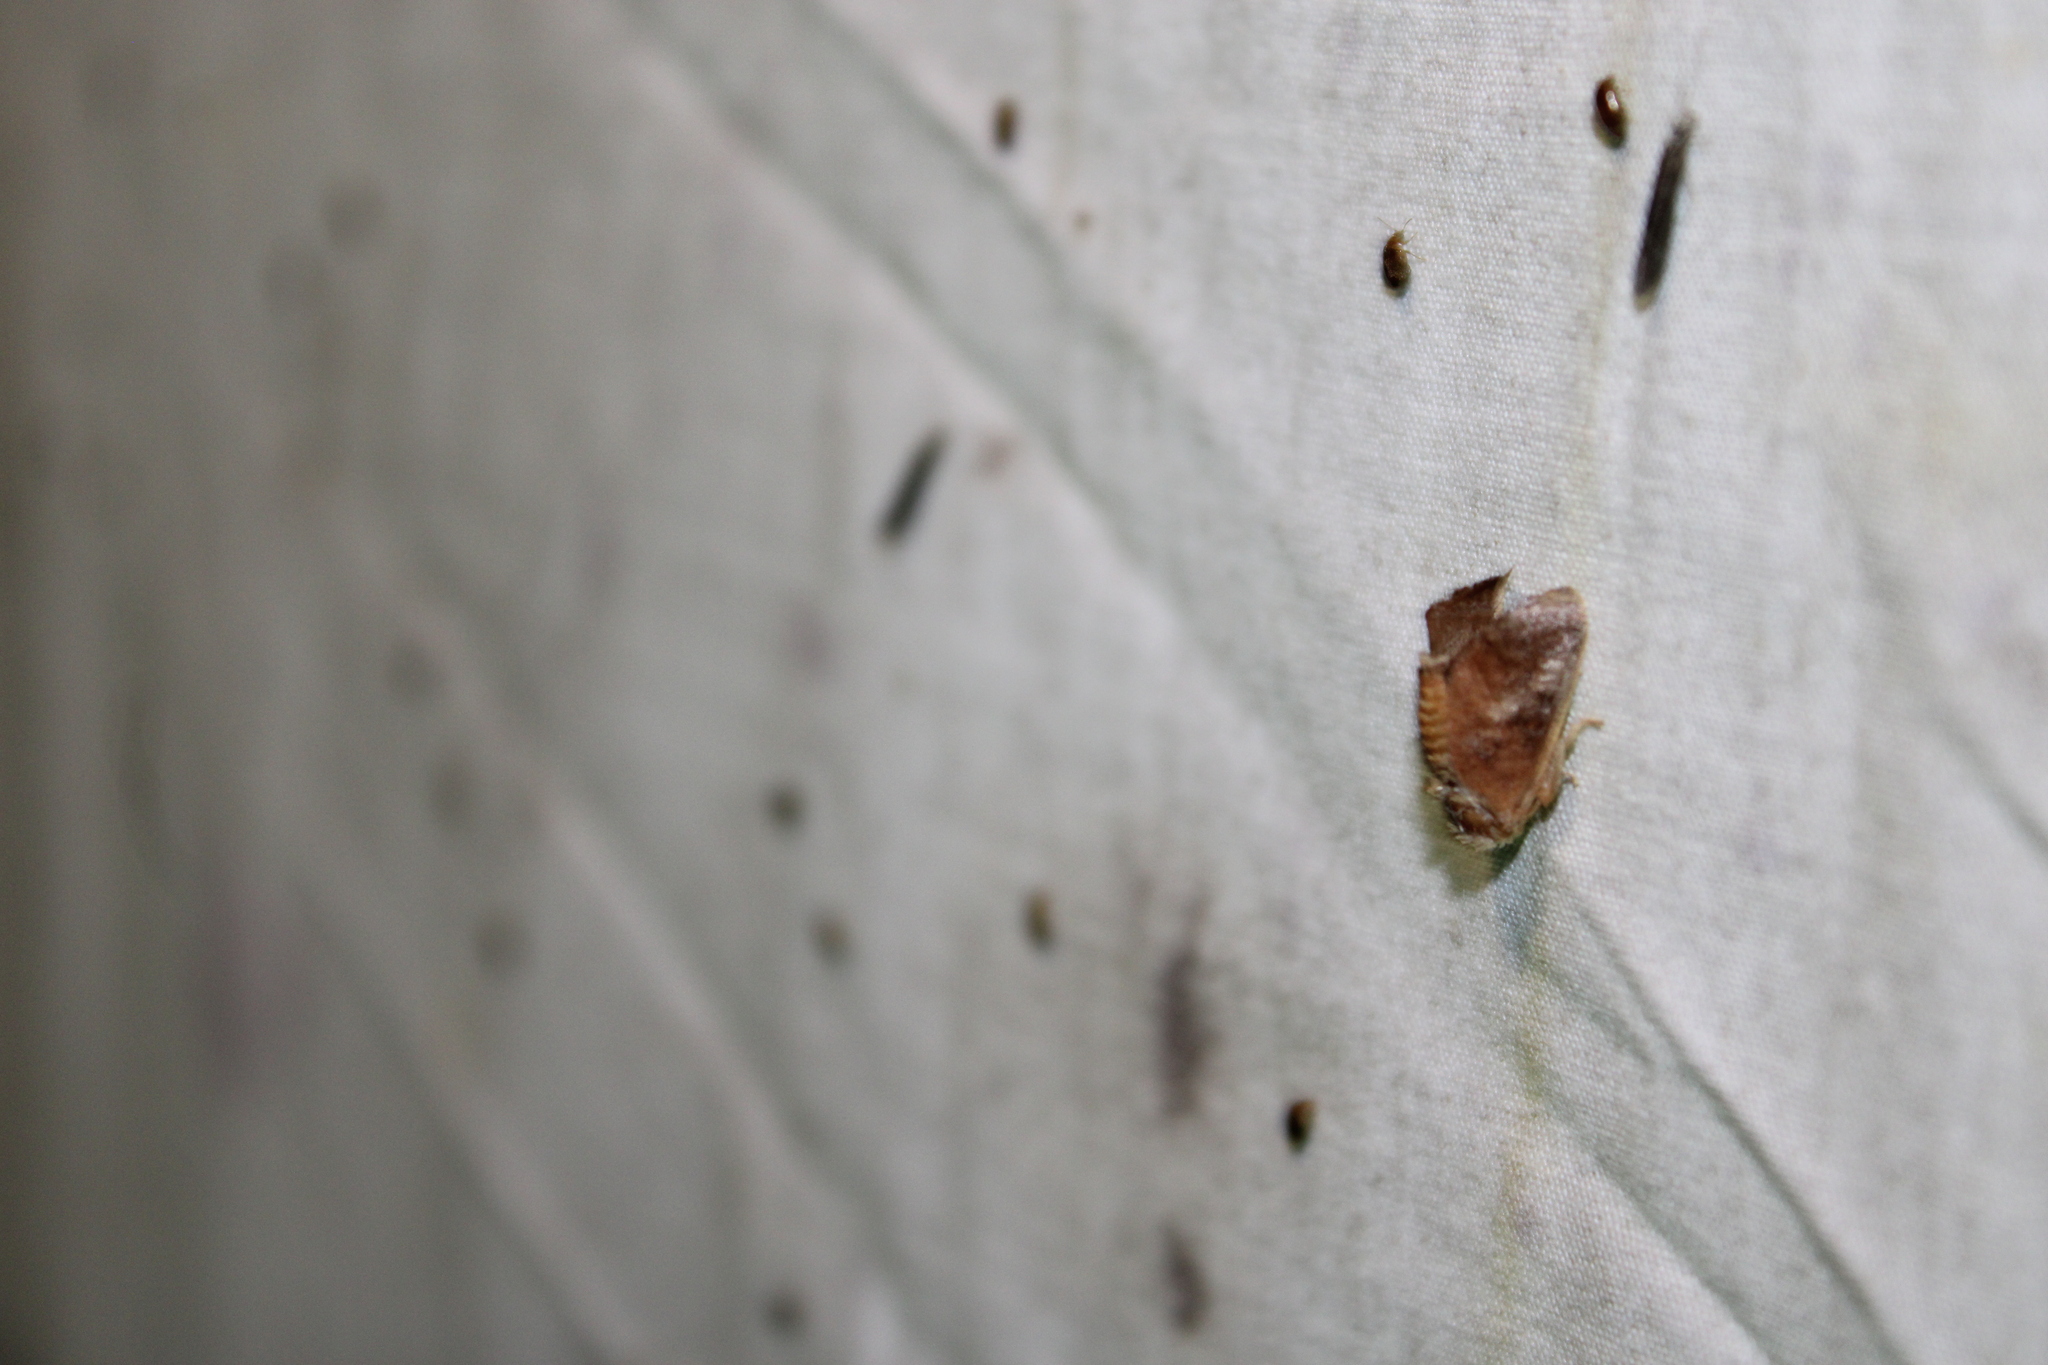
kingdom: Animalia
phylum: Arthropoda
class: Insecta
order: Lepidoptera
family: Limacodidae
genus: Isa
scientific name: Isa textula
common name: Crowned slug moth
